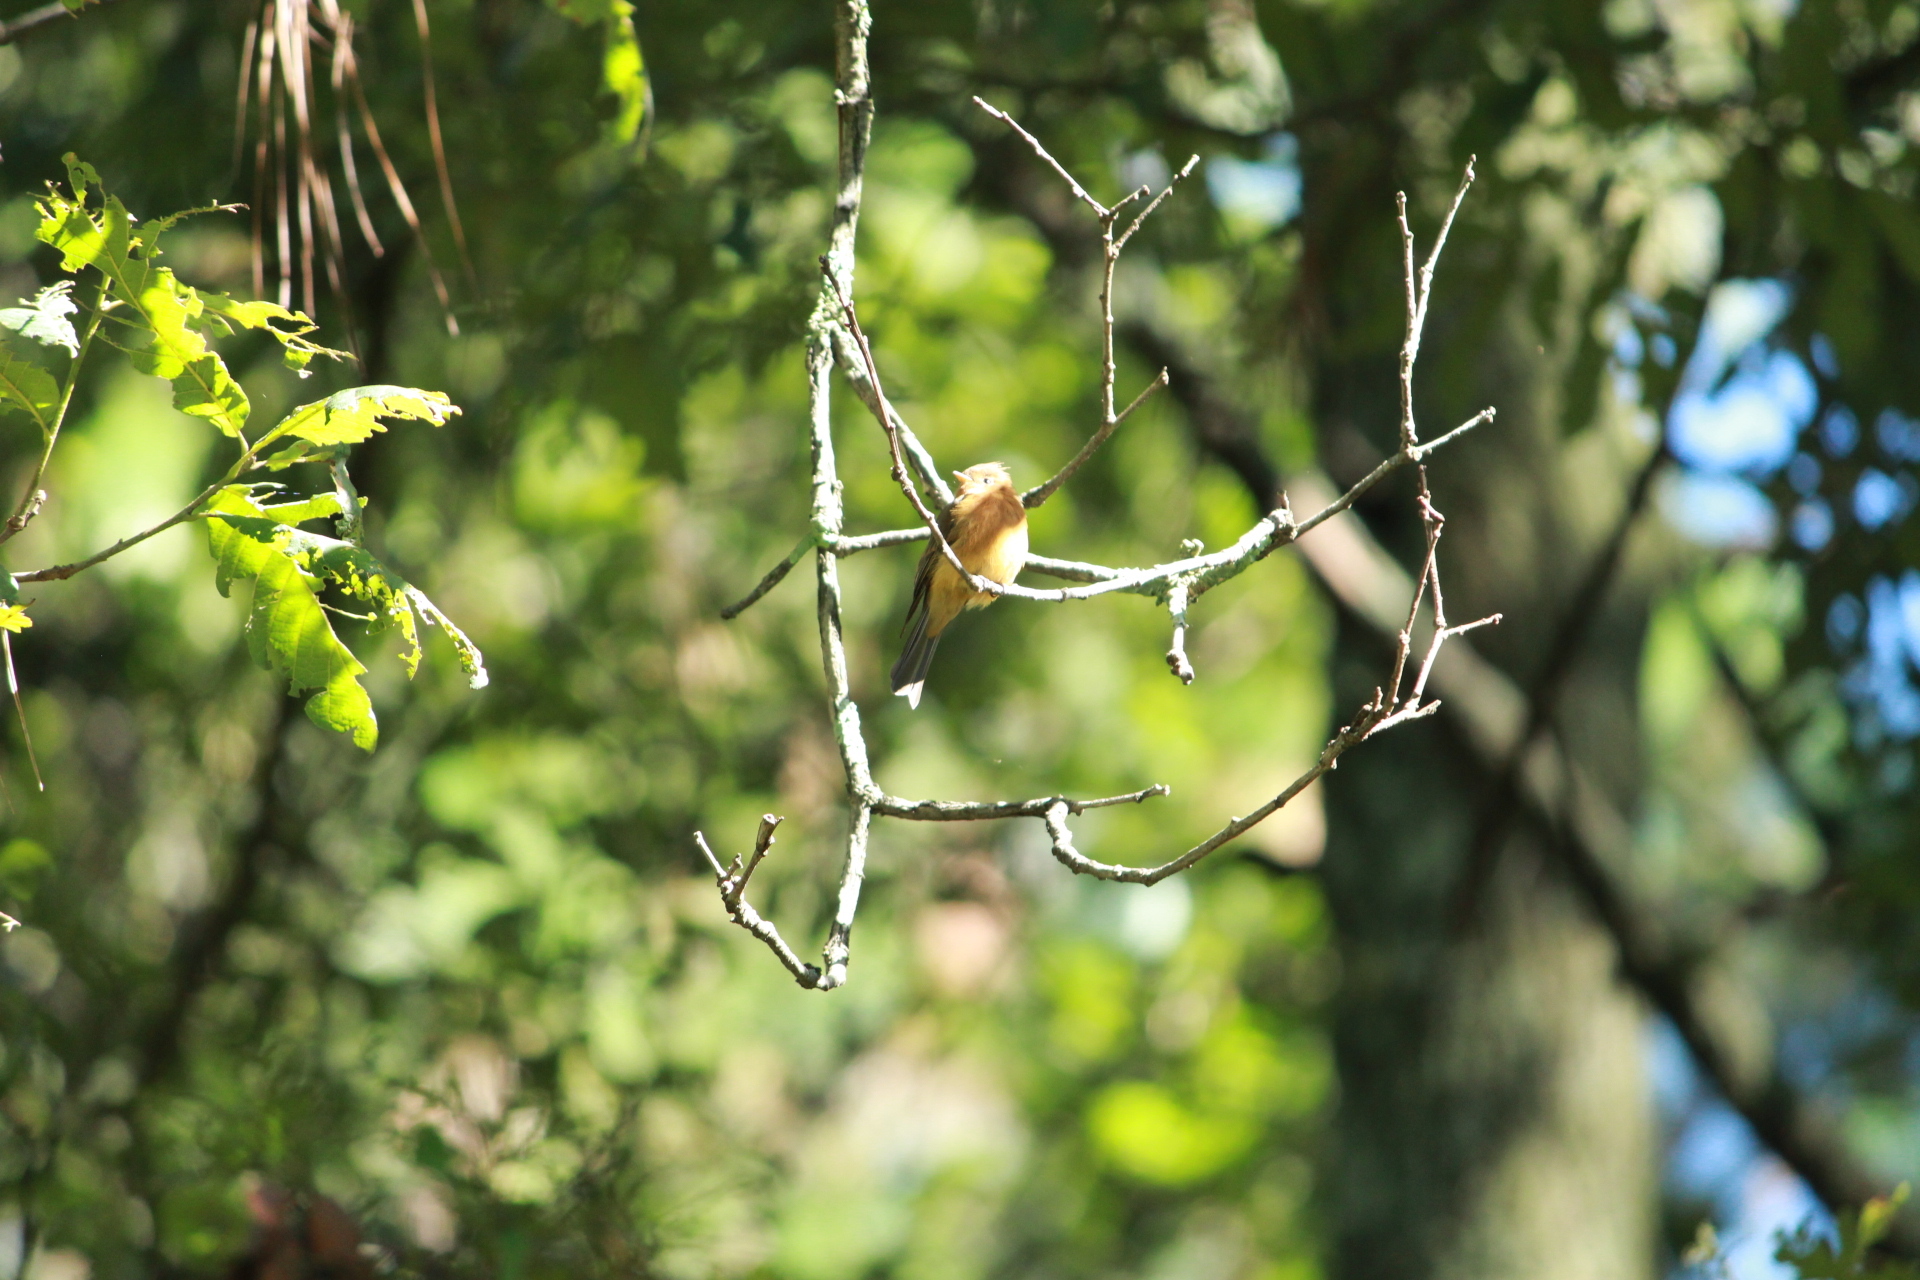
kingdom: Animalia
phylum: Chordata
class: Aves
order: Passeriformes
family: Tyrannidae
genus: Mitrephanes
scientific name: Mitrephanes phaeocercus
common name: Northern tufted flycatcher
